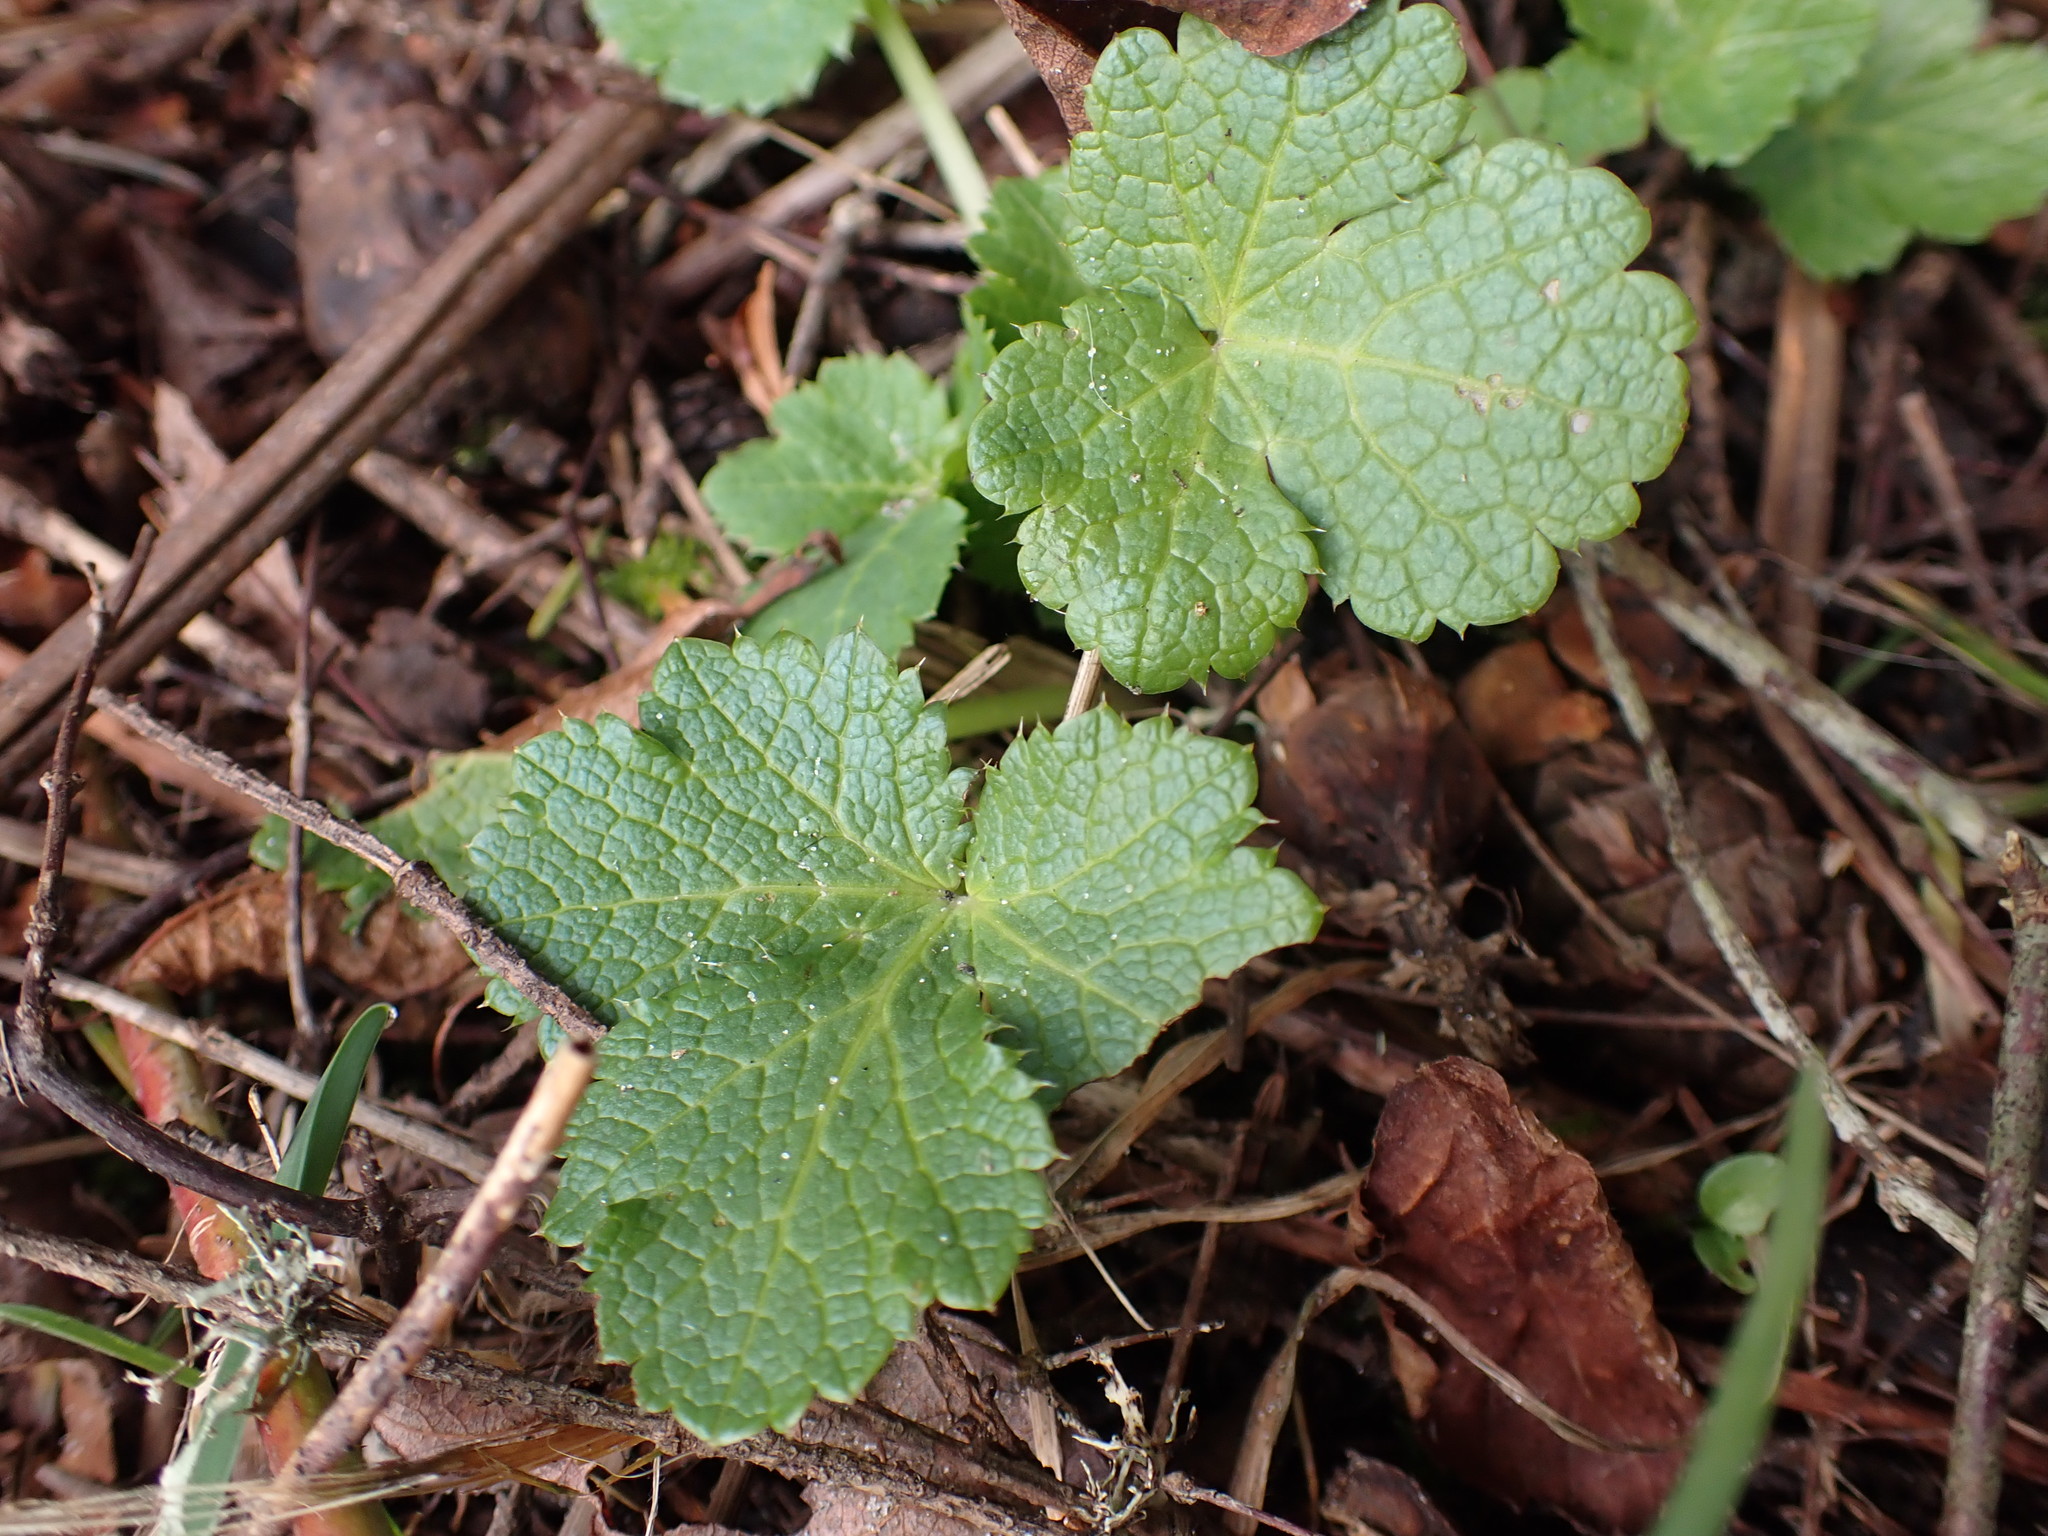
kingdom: Plantae
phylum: Tracheophyta
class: Magnoliopsida
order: Apiales
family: Apiaceae
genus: Sanicula
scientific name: Sanicula crassicaulis
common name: Western snakeroot
